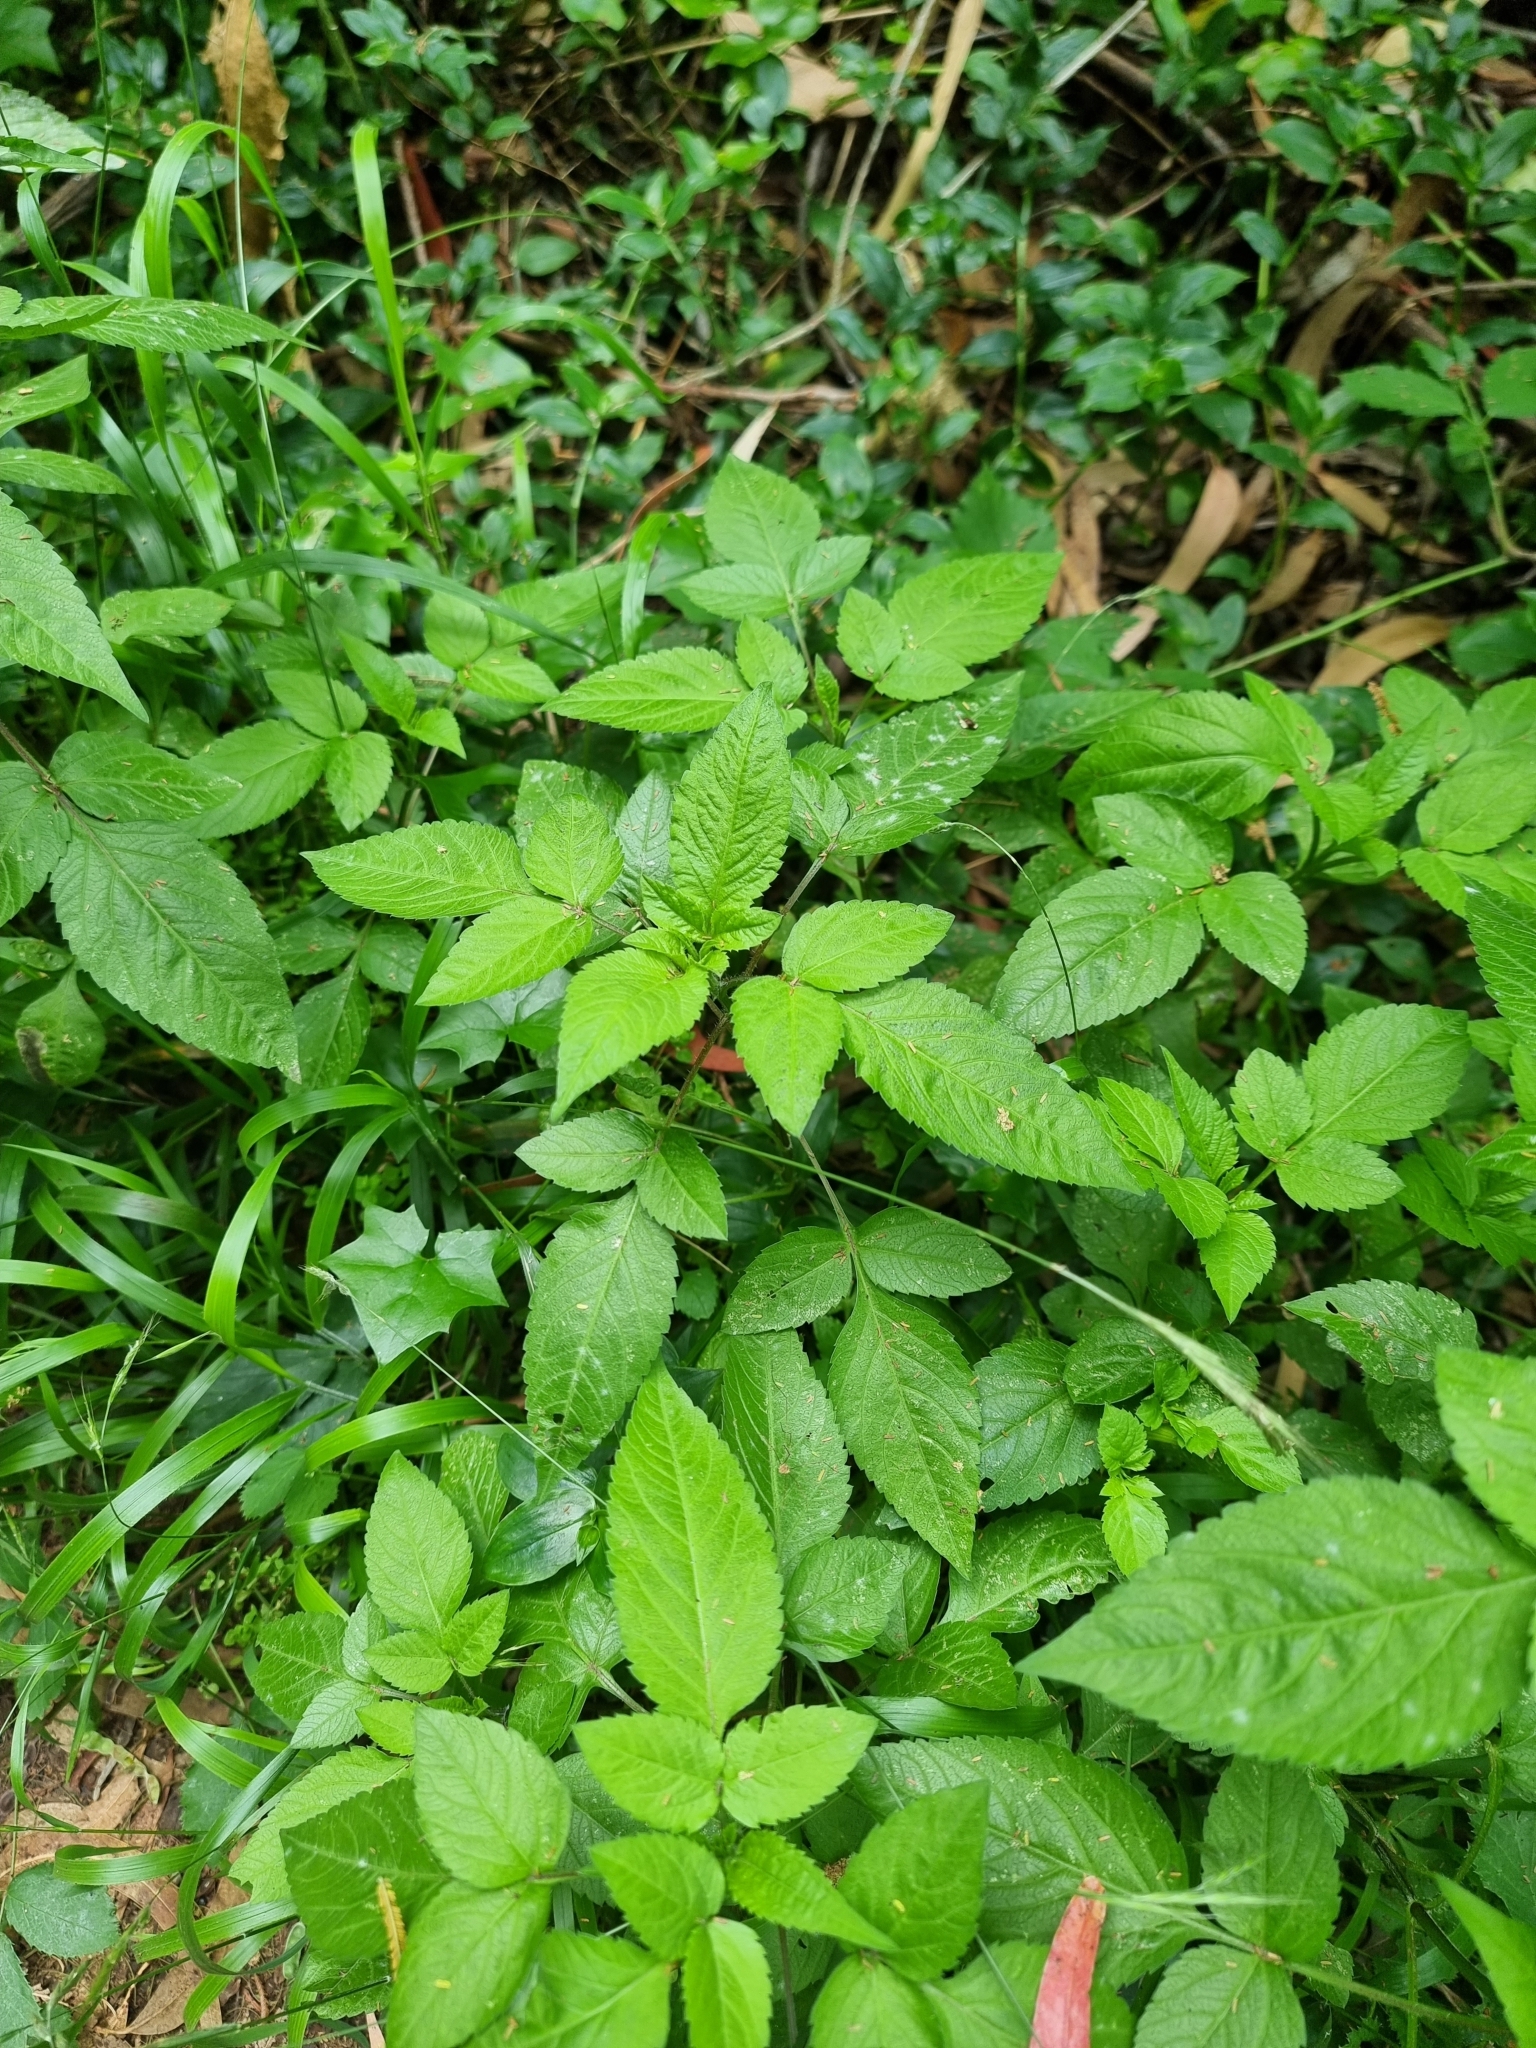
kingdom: Plantae
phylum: Tracheophyta
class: Magnoliopsida
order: Asterales
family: Asteraceae
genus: Bidens
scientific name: Bidens pilosa
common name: Black-jack
